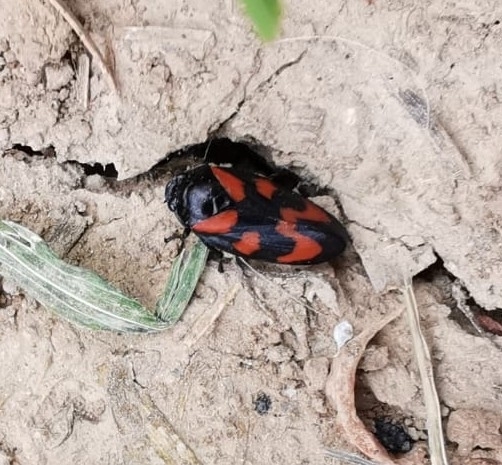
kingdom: Animalia
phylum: Arthropoda
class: Insecta
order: Hemiptera
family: Cercopidae
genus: Cercopis
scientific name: Cercopis vulnerata
